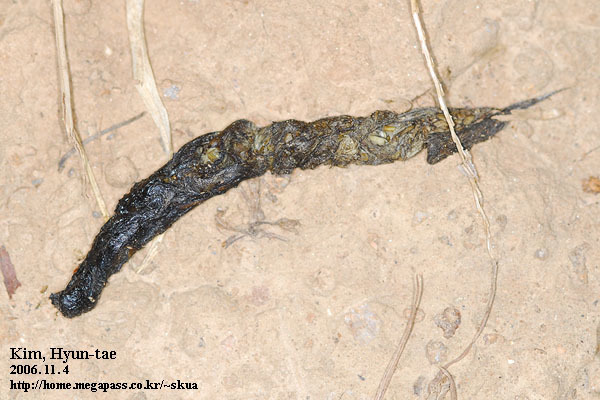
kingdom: Animalia
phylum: Chordata
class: Mammalia
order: Carnivora
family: Mustelidae
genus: Mustela
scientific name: Mustela sibirica
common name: Siberian weasel
